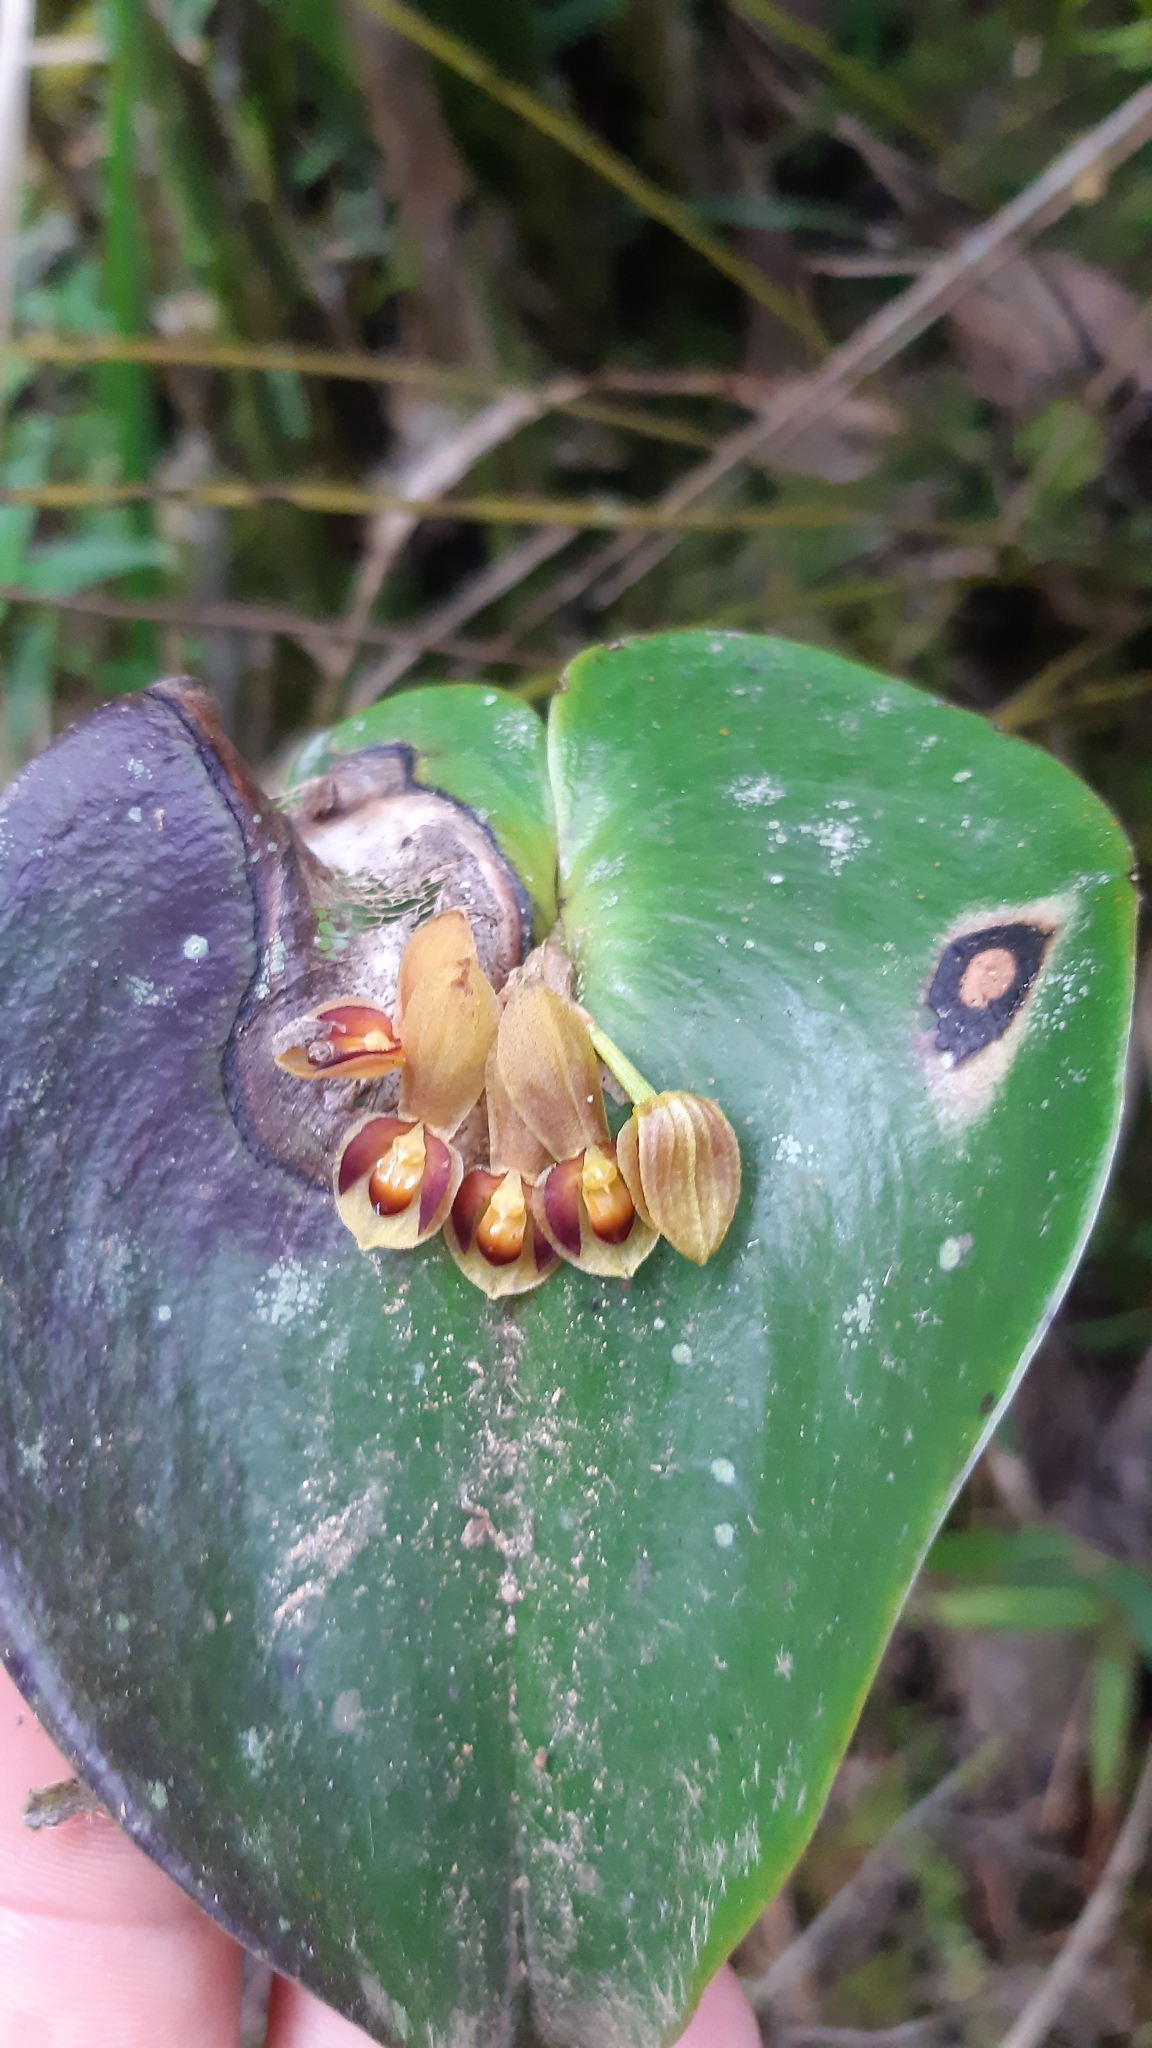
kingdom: Plantae
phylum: Tracheophyta
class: Liliopsida
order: Asparagales
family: Orchidaceae
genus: Pleurothallis
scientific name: Pleurothallis cordata
